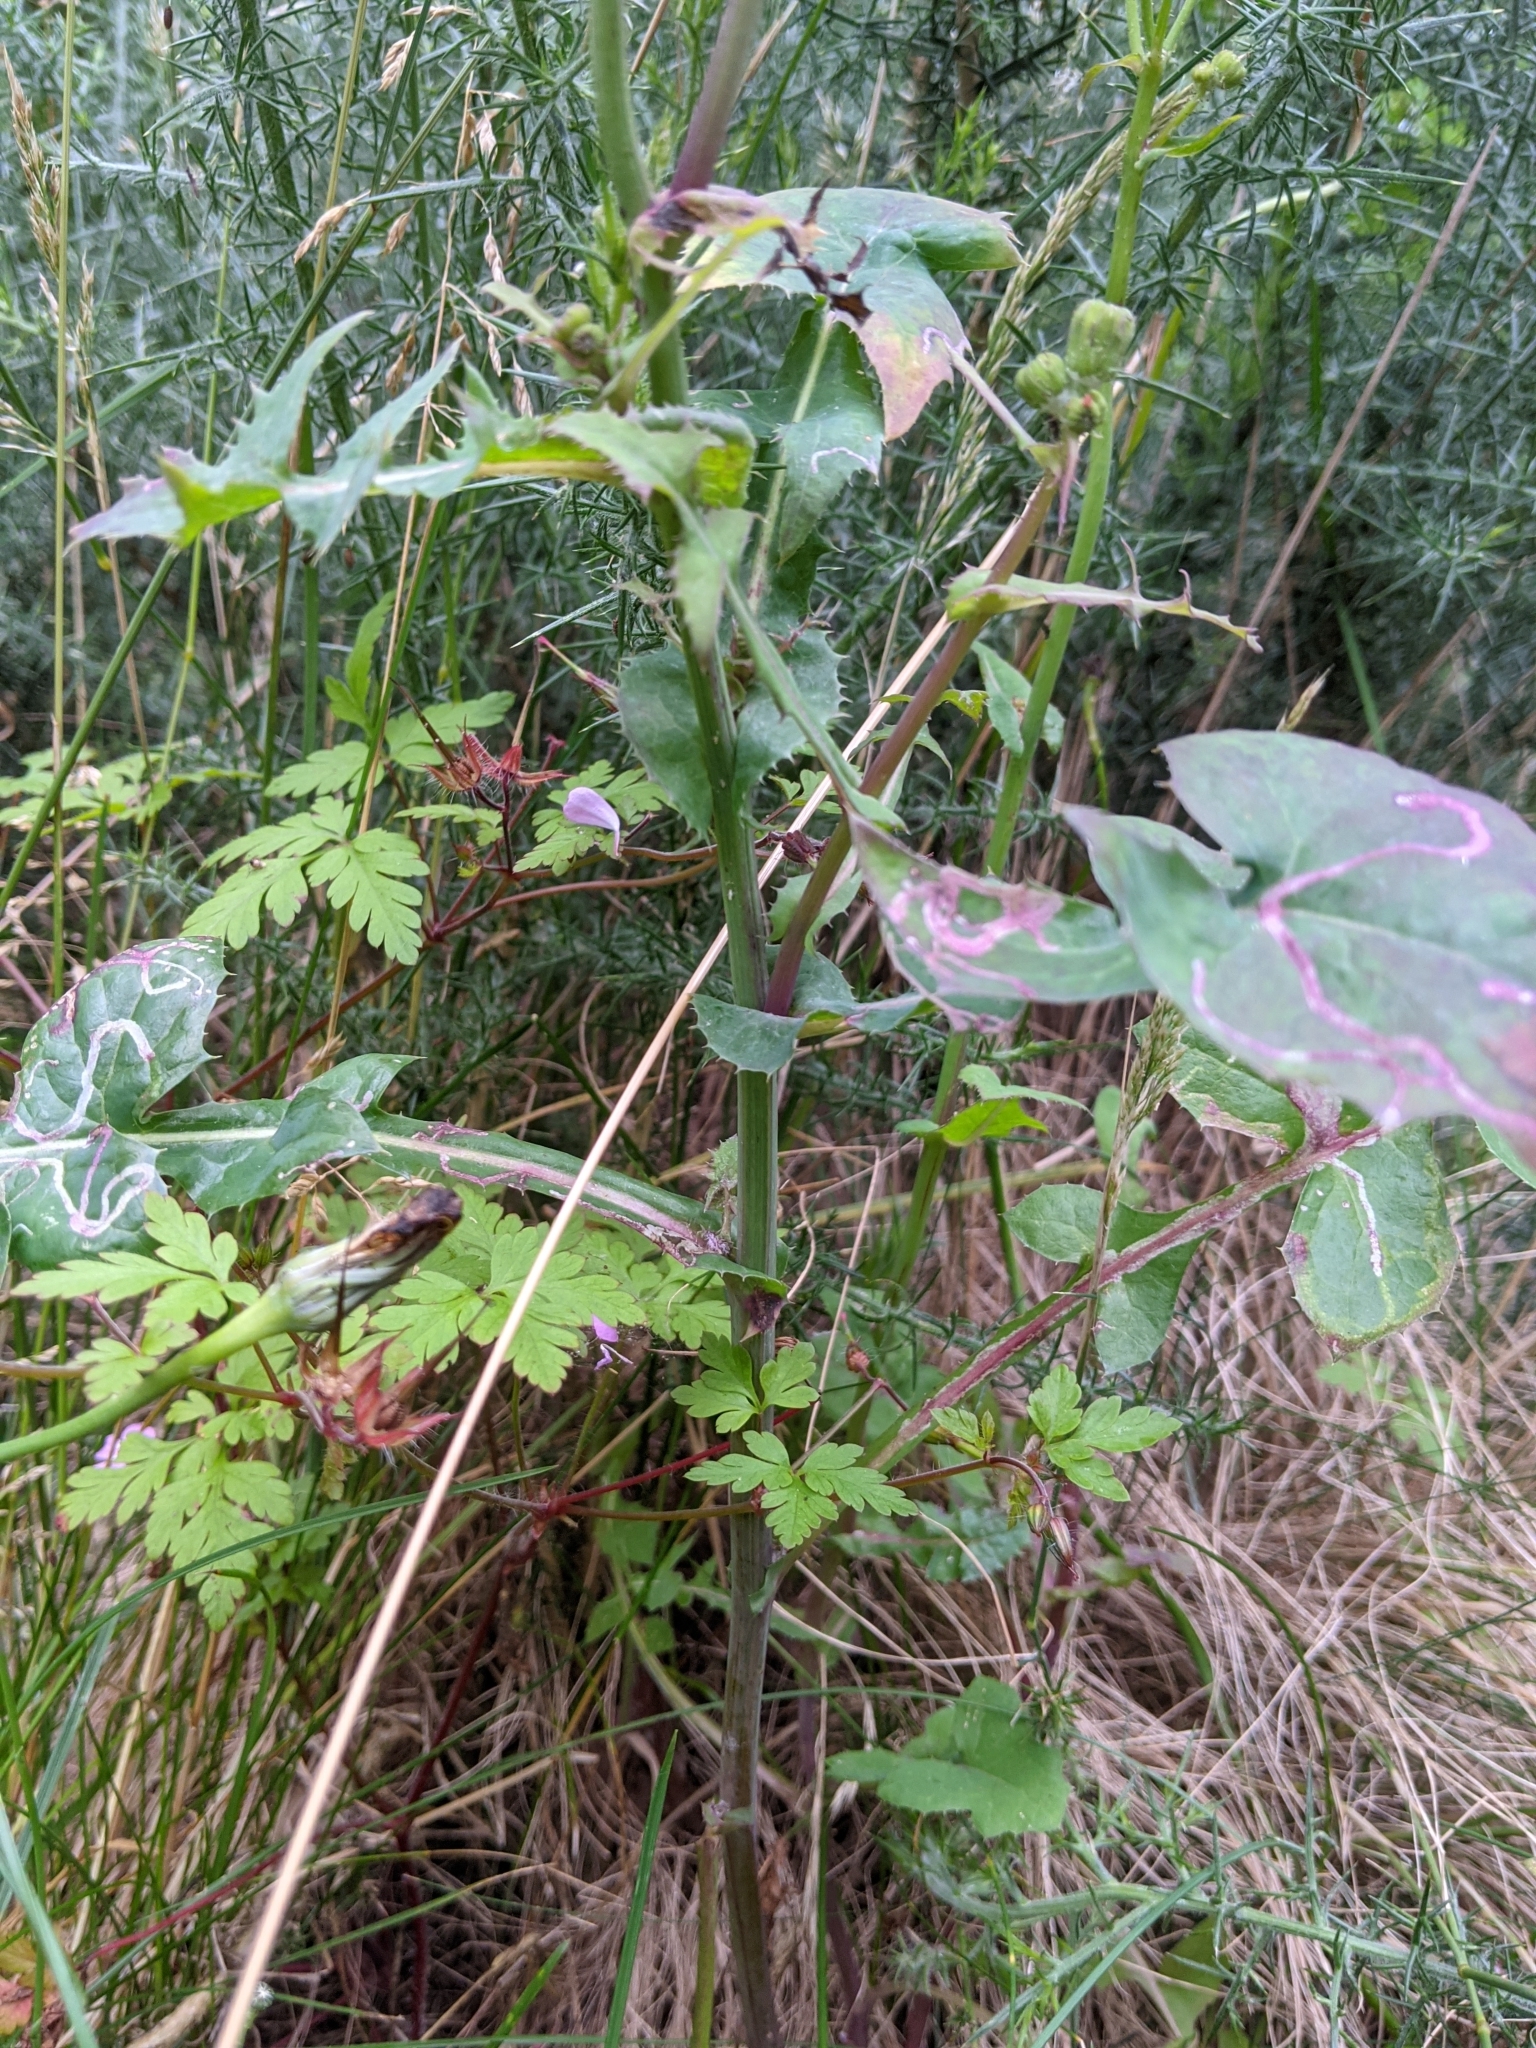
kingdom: Plantae
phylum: Tracheophyta
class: Magnoliopsida
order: Asterales
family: Asteraceae
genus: Sonchus
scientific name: Sonchus oleraceus
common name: Common sowthistle
